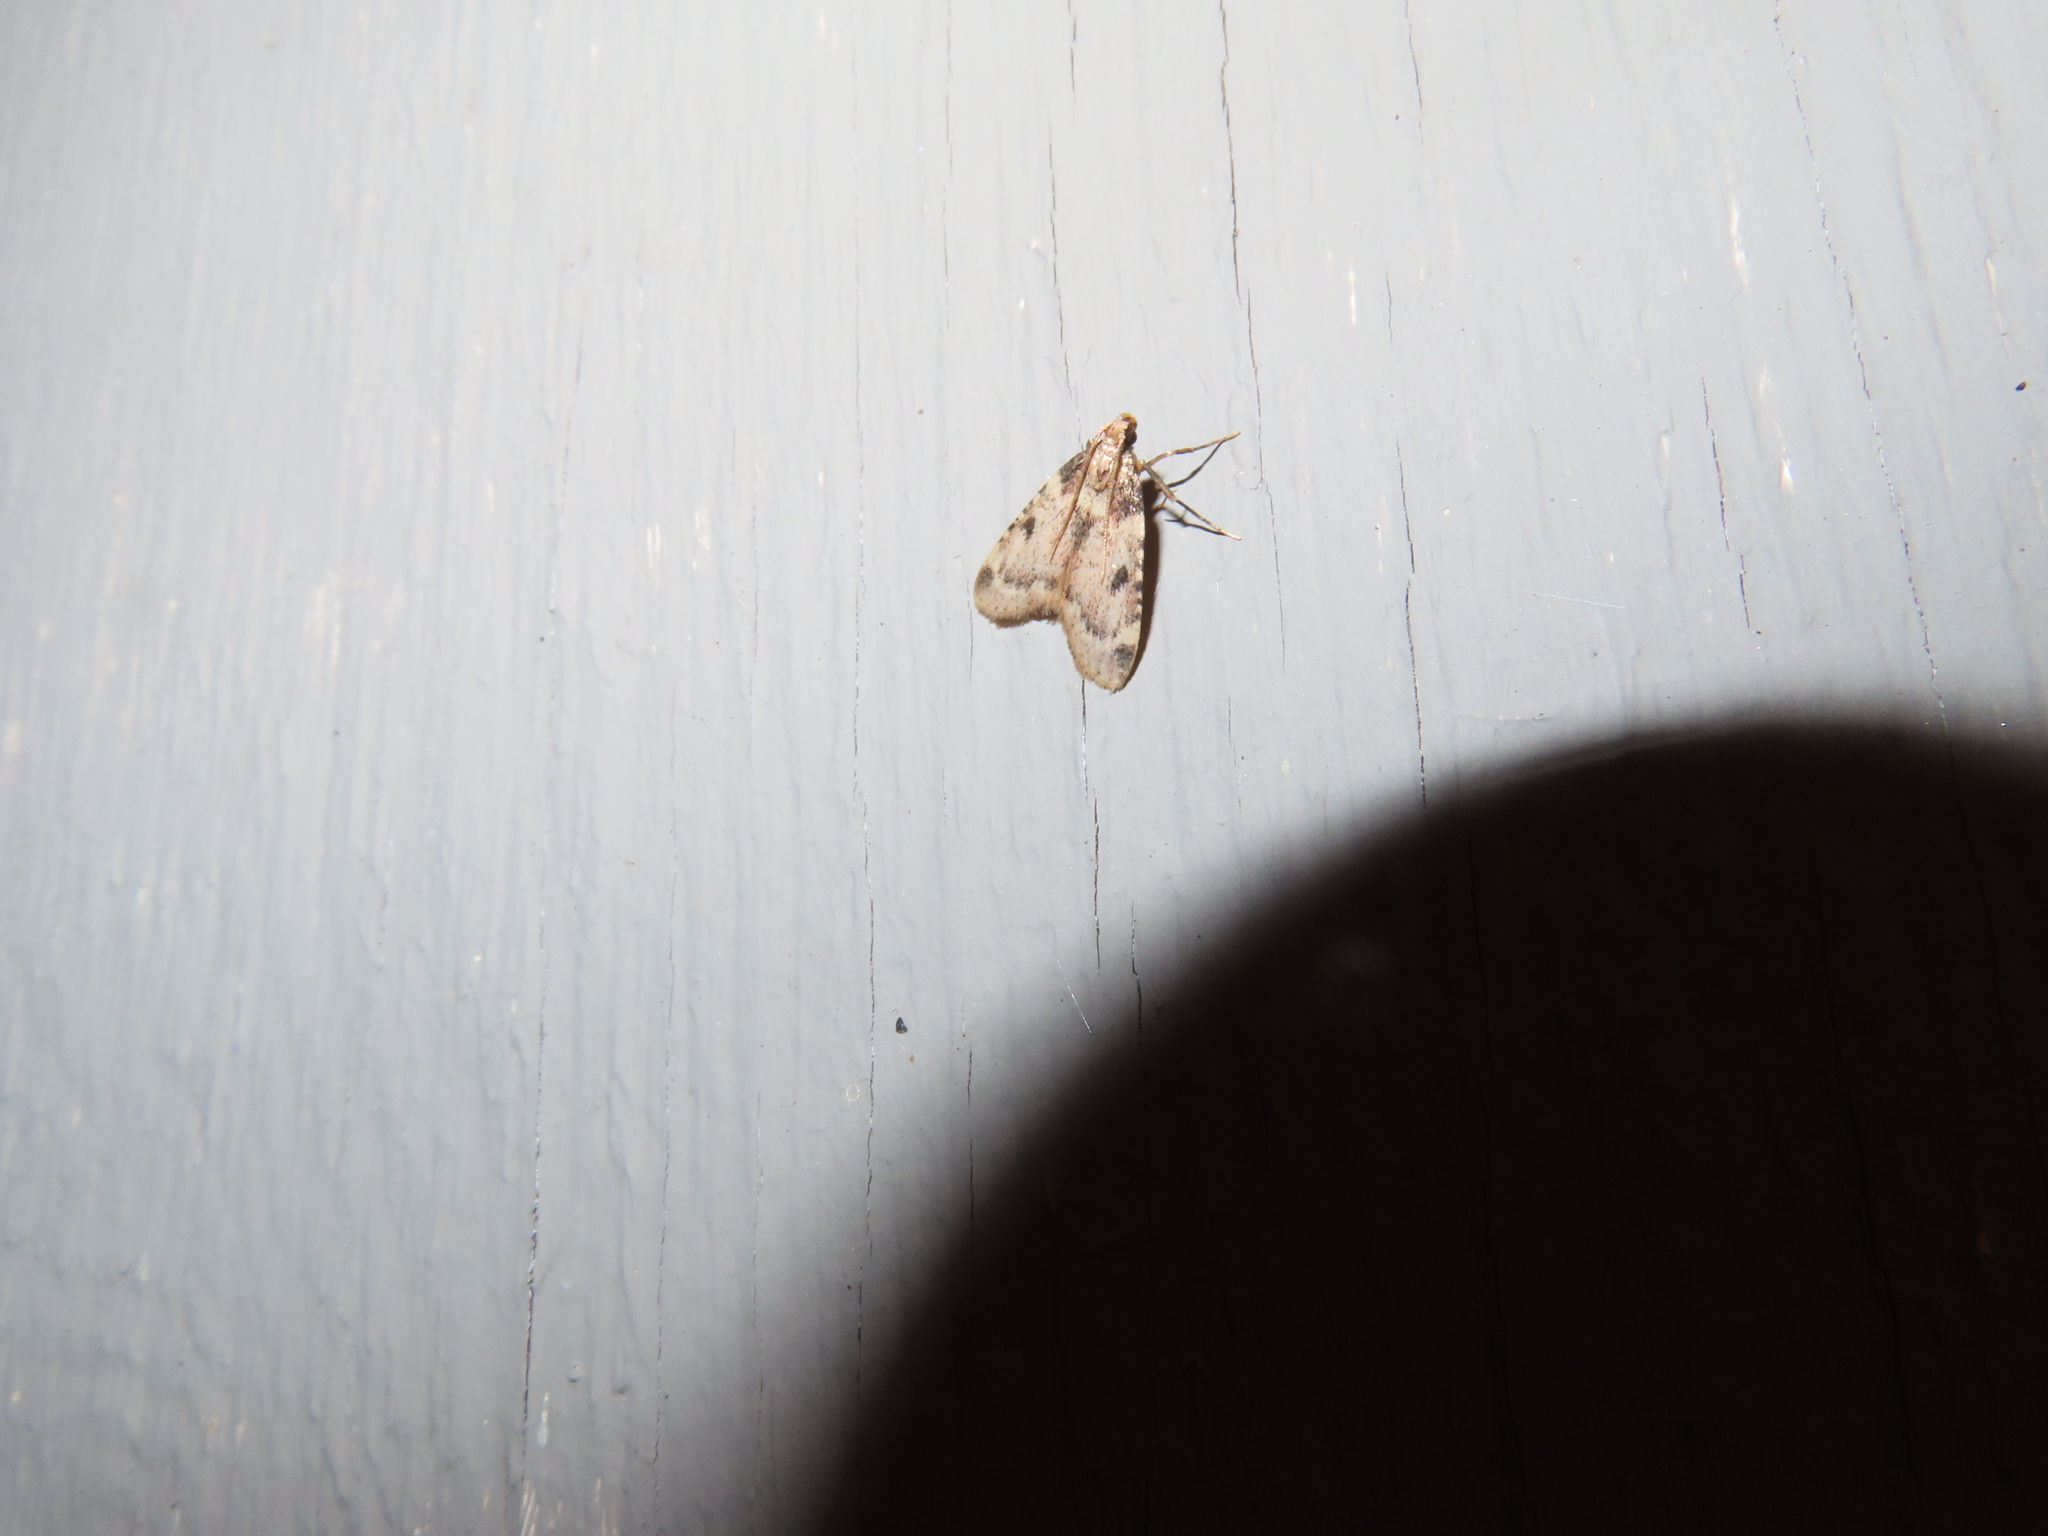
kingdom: Animalia
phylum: Arthropoda
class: Insecta
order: Lepidoptera
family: Pyralidae
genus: Aglossa
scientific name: Aglossa costiferalis
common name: Calico pyralid moth
